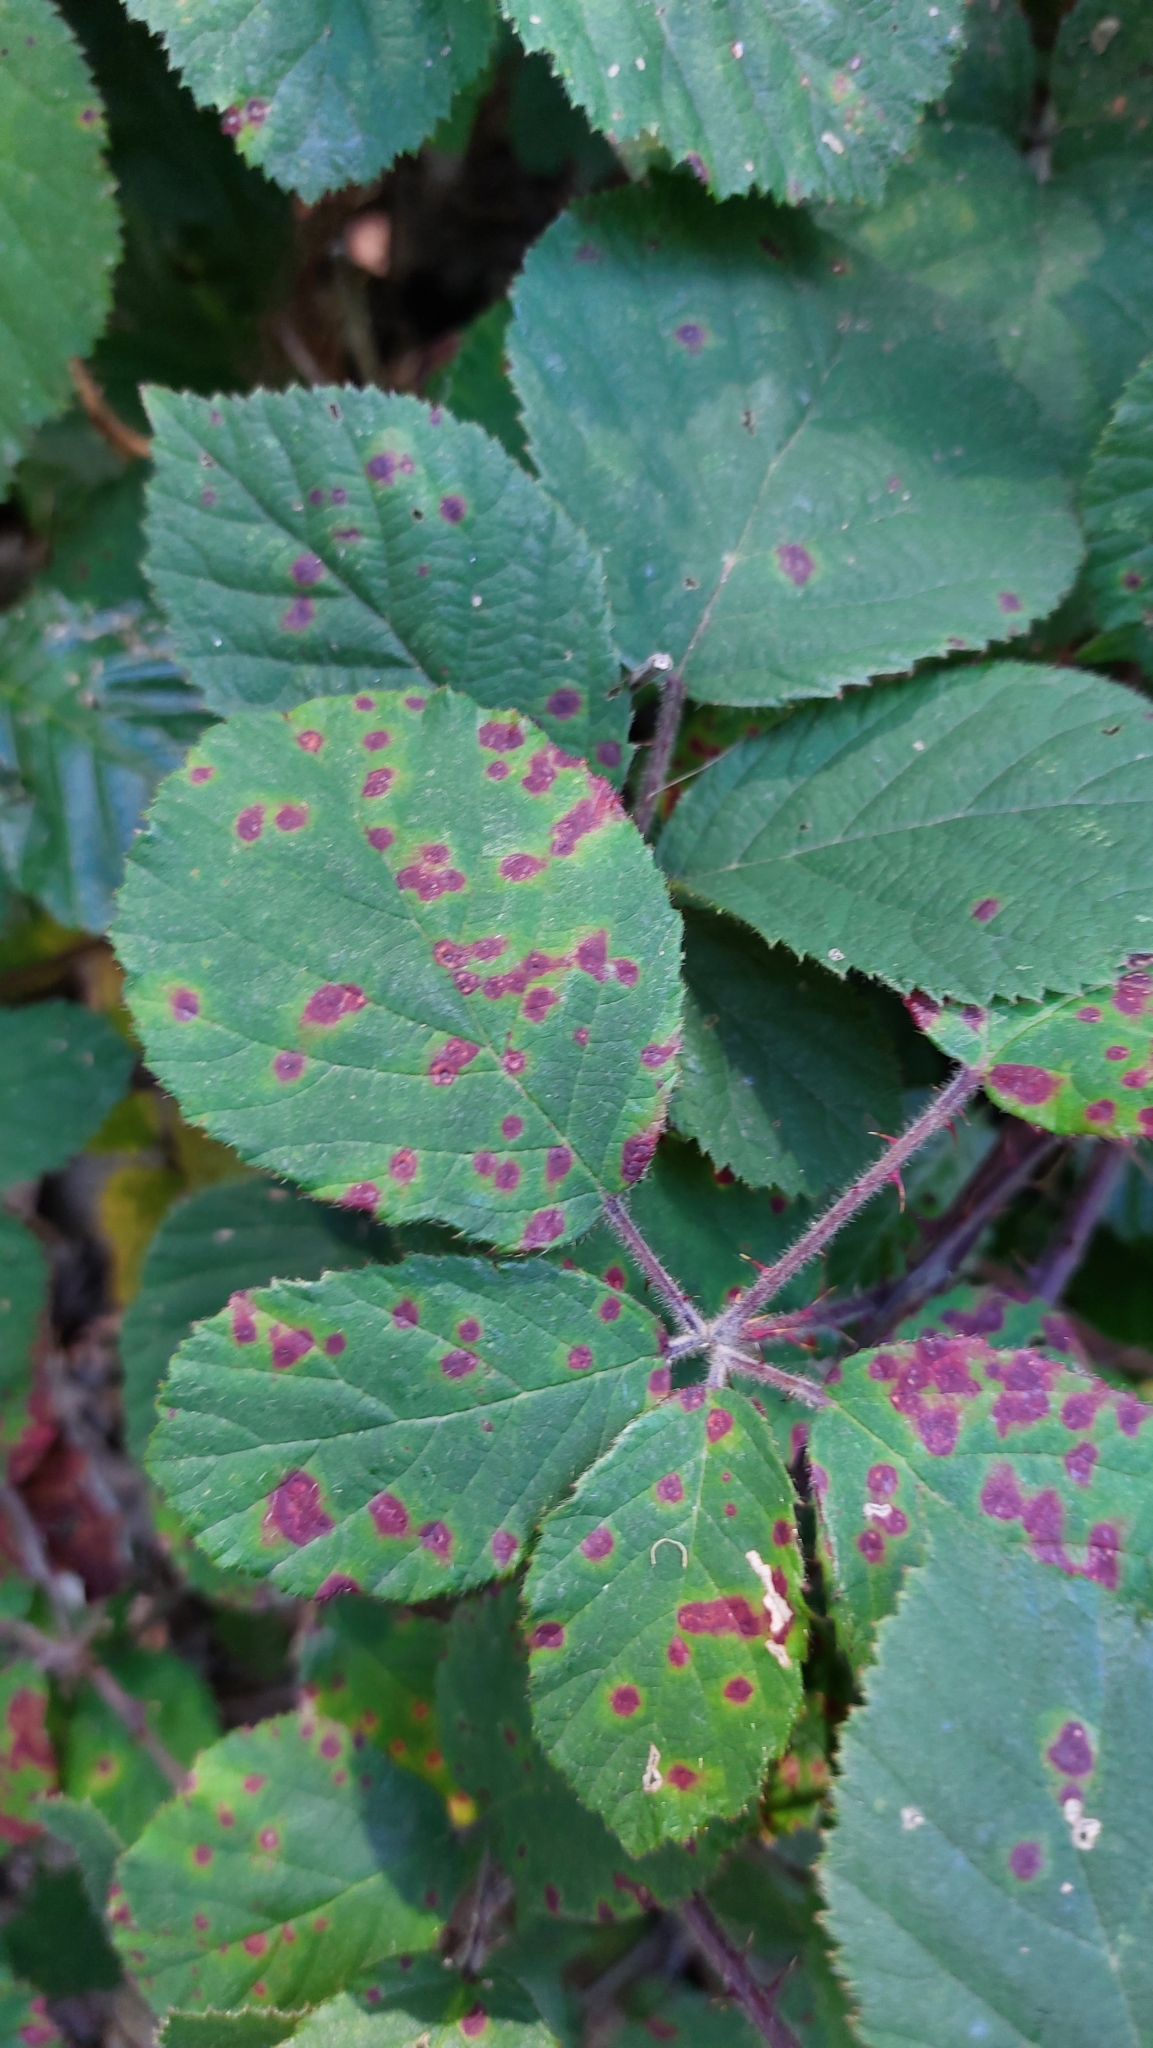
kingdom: Fungi
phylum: Basidiomycota
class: Pucciniomycetes
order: Pucciniales
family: Phragmidiaceae
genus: Phragmidium
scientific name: Phragmidium violaceum
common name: Violet bramble rust
